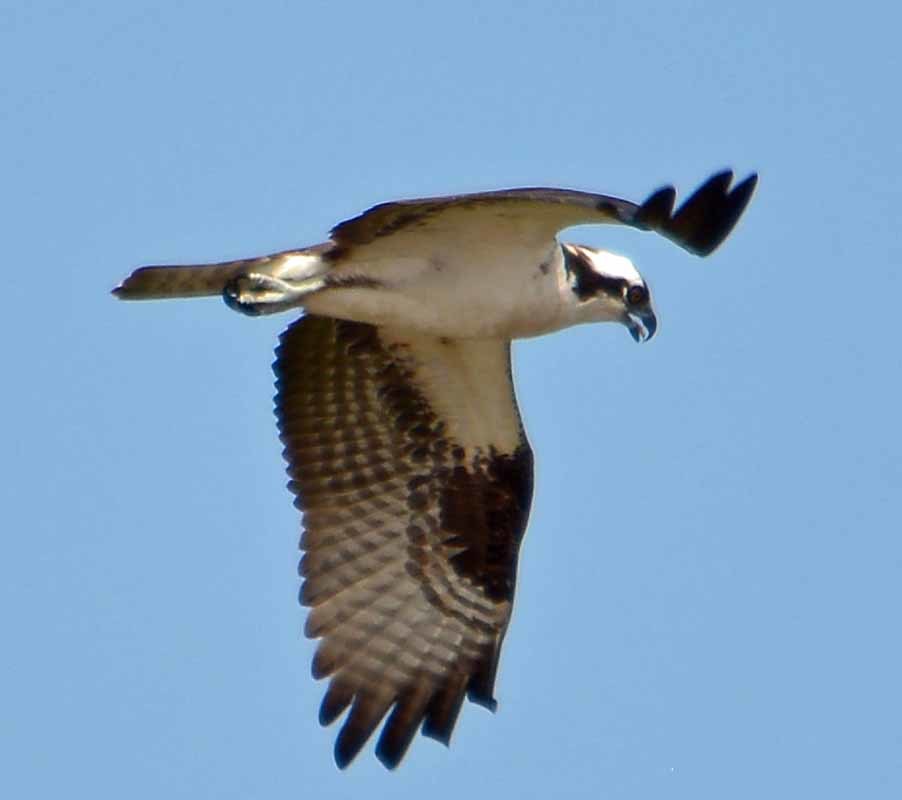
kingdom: Animalia
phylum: Chordata
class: Aves
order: Accipitriformes
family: Pandionidae
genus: Pandion
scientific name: Pandion haliaetus
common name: Osprey
